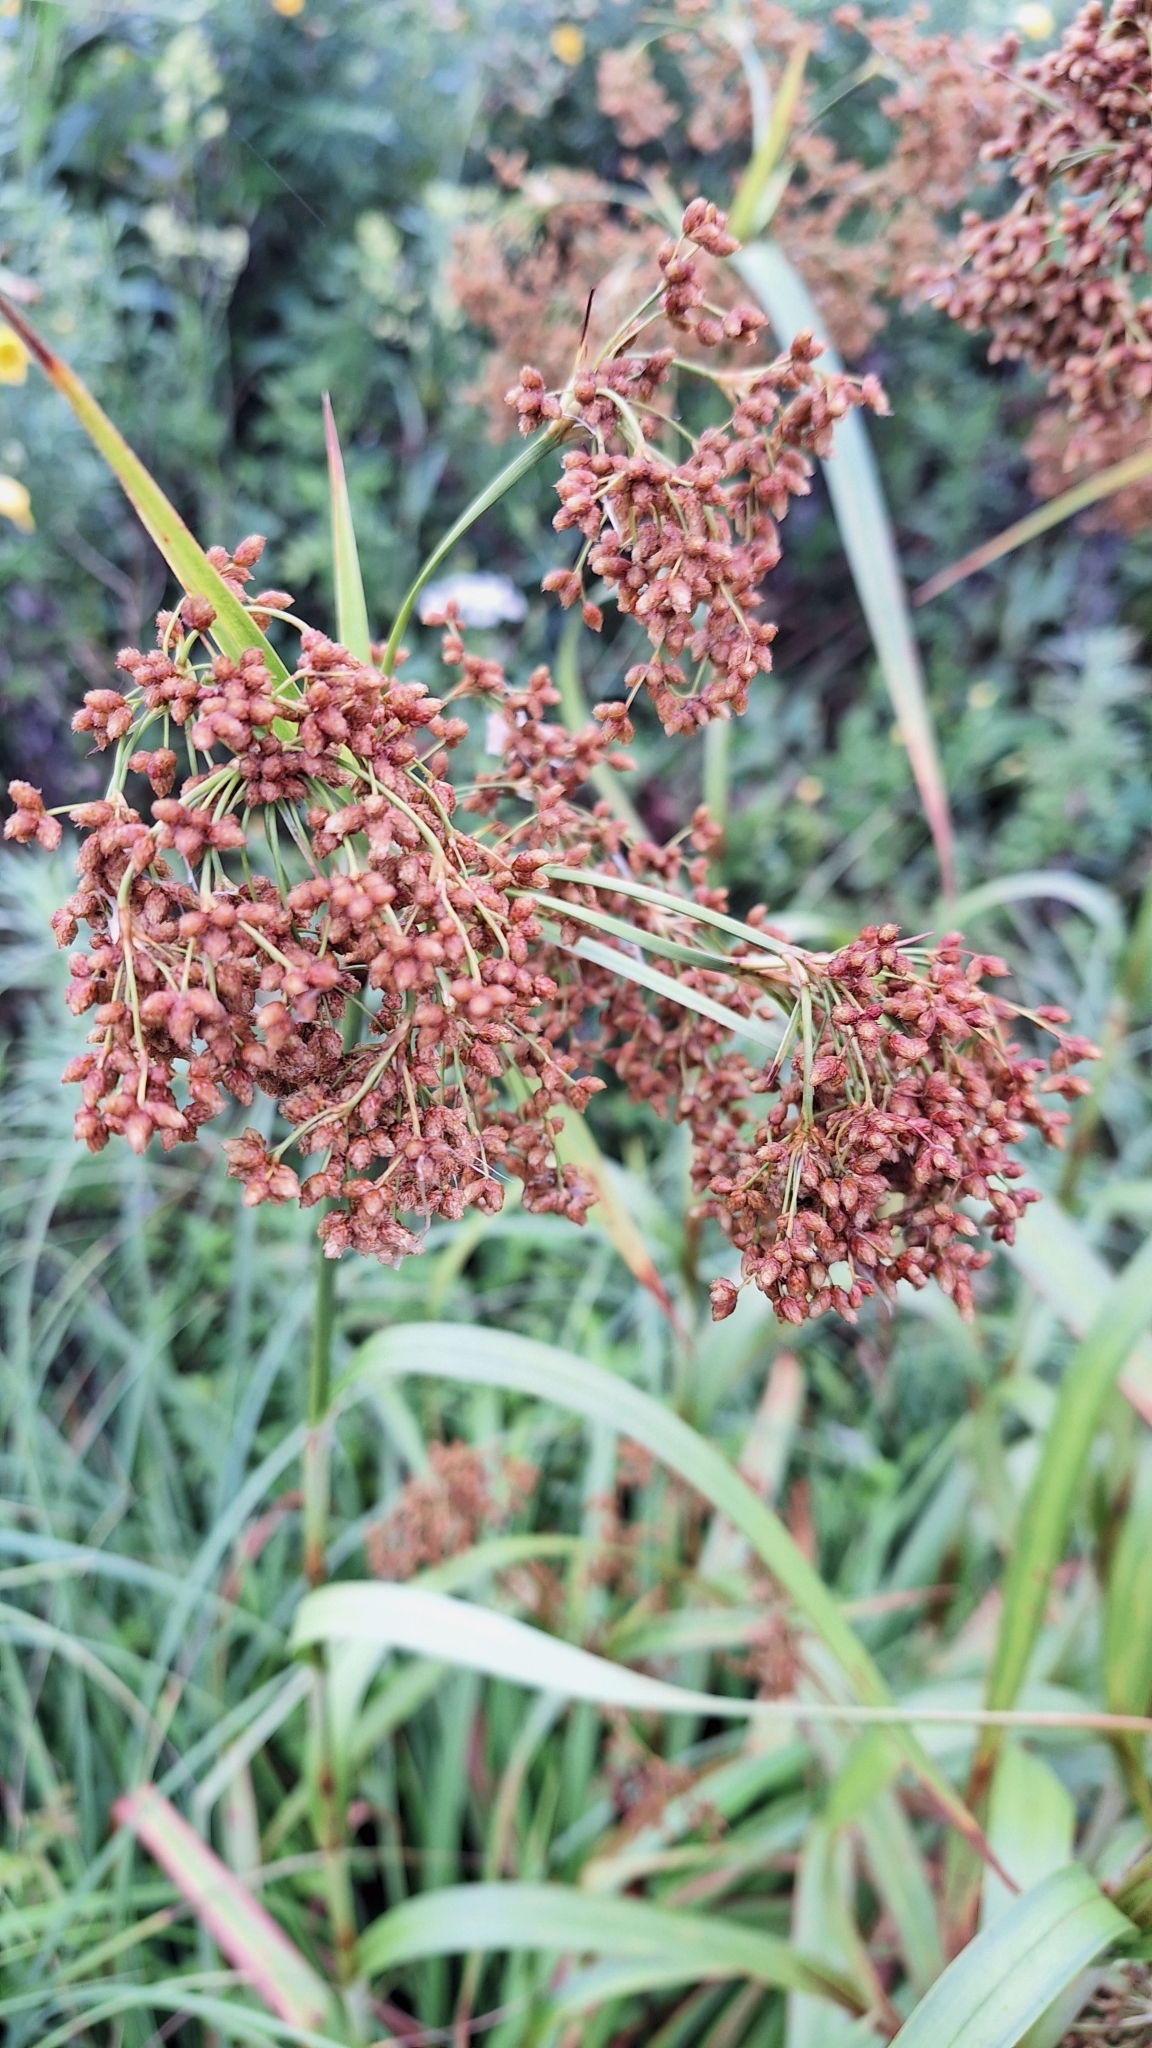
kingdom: Plantae
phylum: Tracheophyta
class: Liliopsida
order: Poales
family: Cyperaceae
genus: Scirpus
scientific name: Scirpus lushanensis
